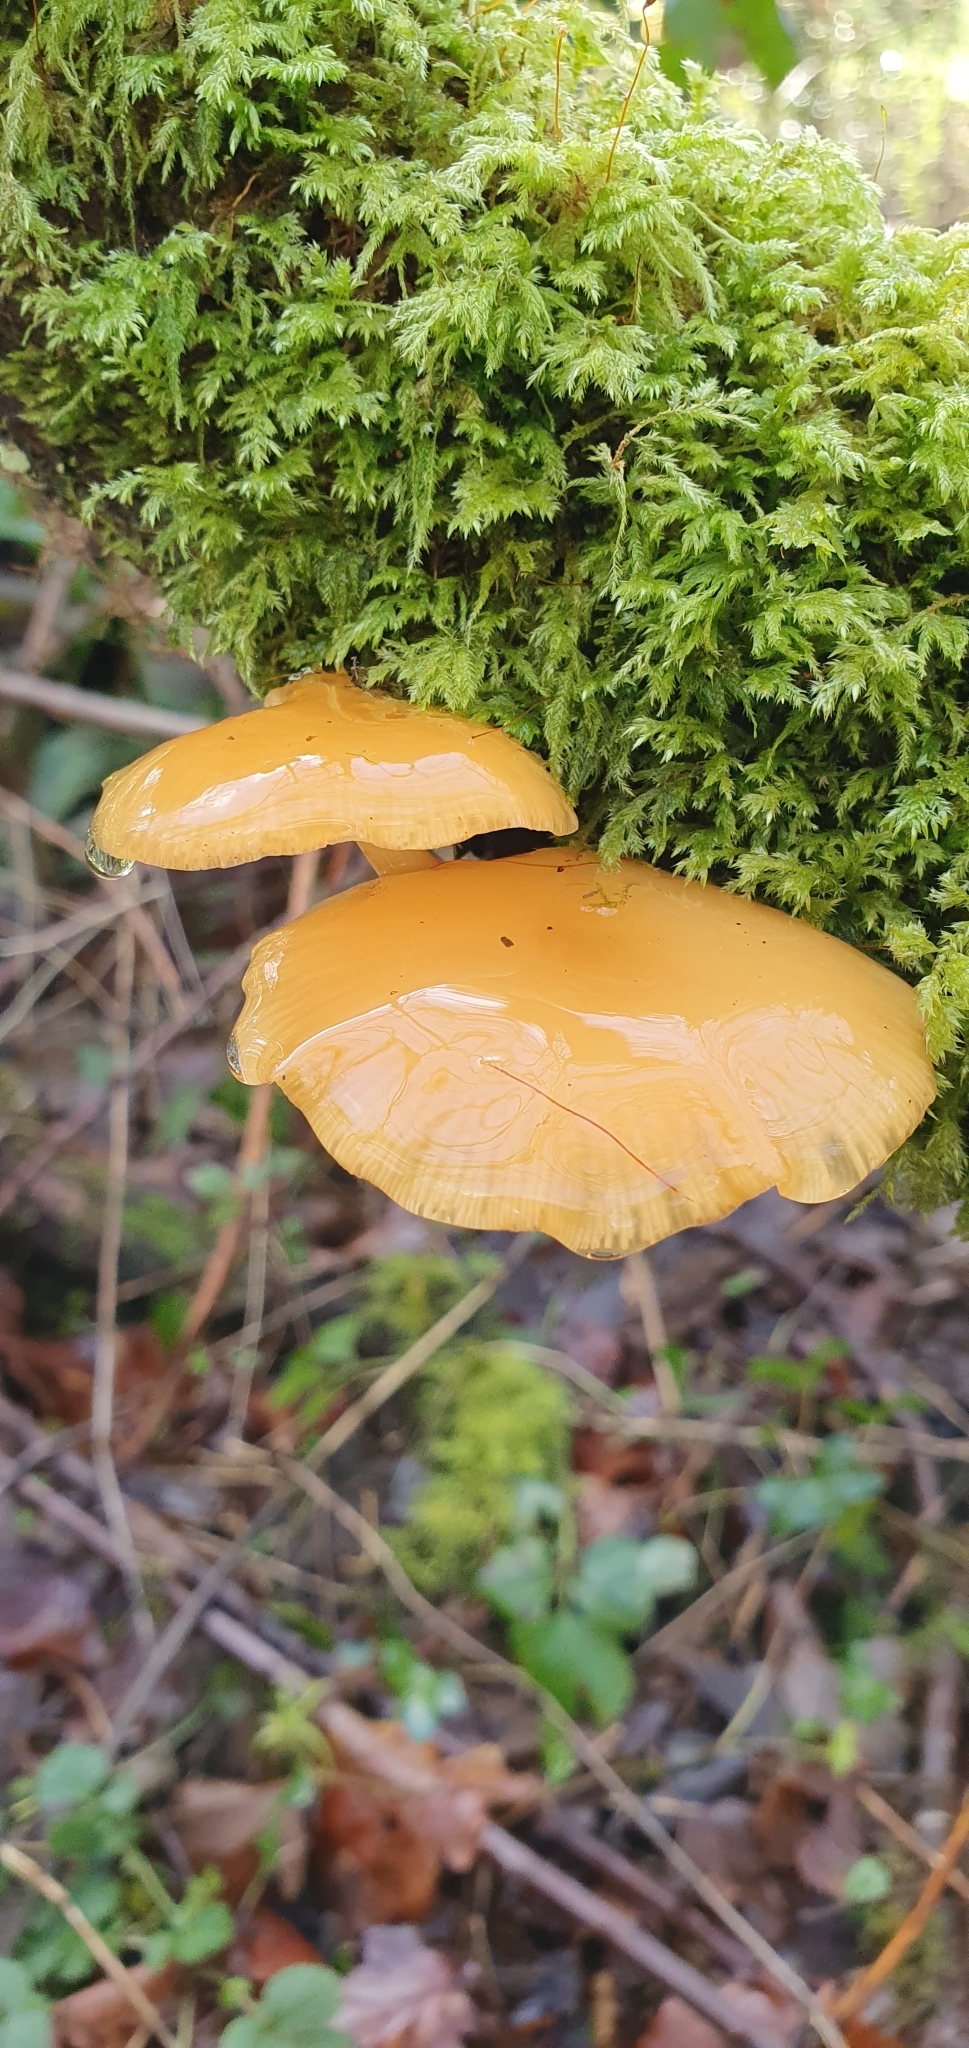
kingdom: Fungi
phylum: Basidiomycota
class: Agaricomycetes
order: Agaricales
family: Physalacriaceae
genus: Flammulina
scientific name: Flammulina
